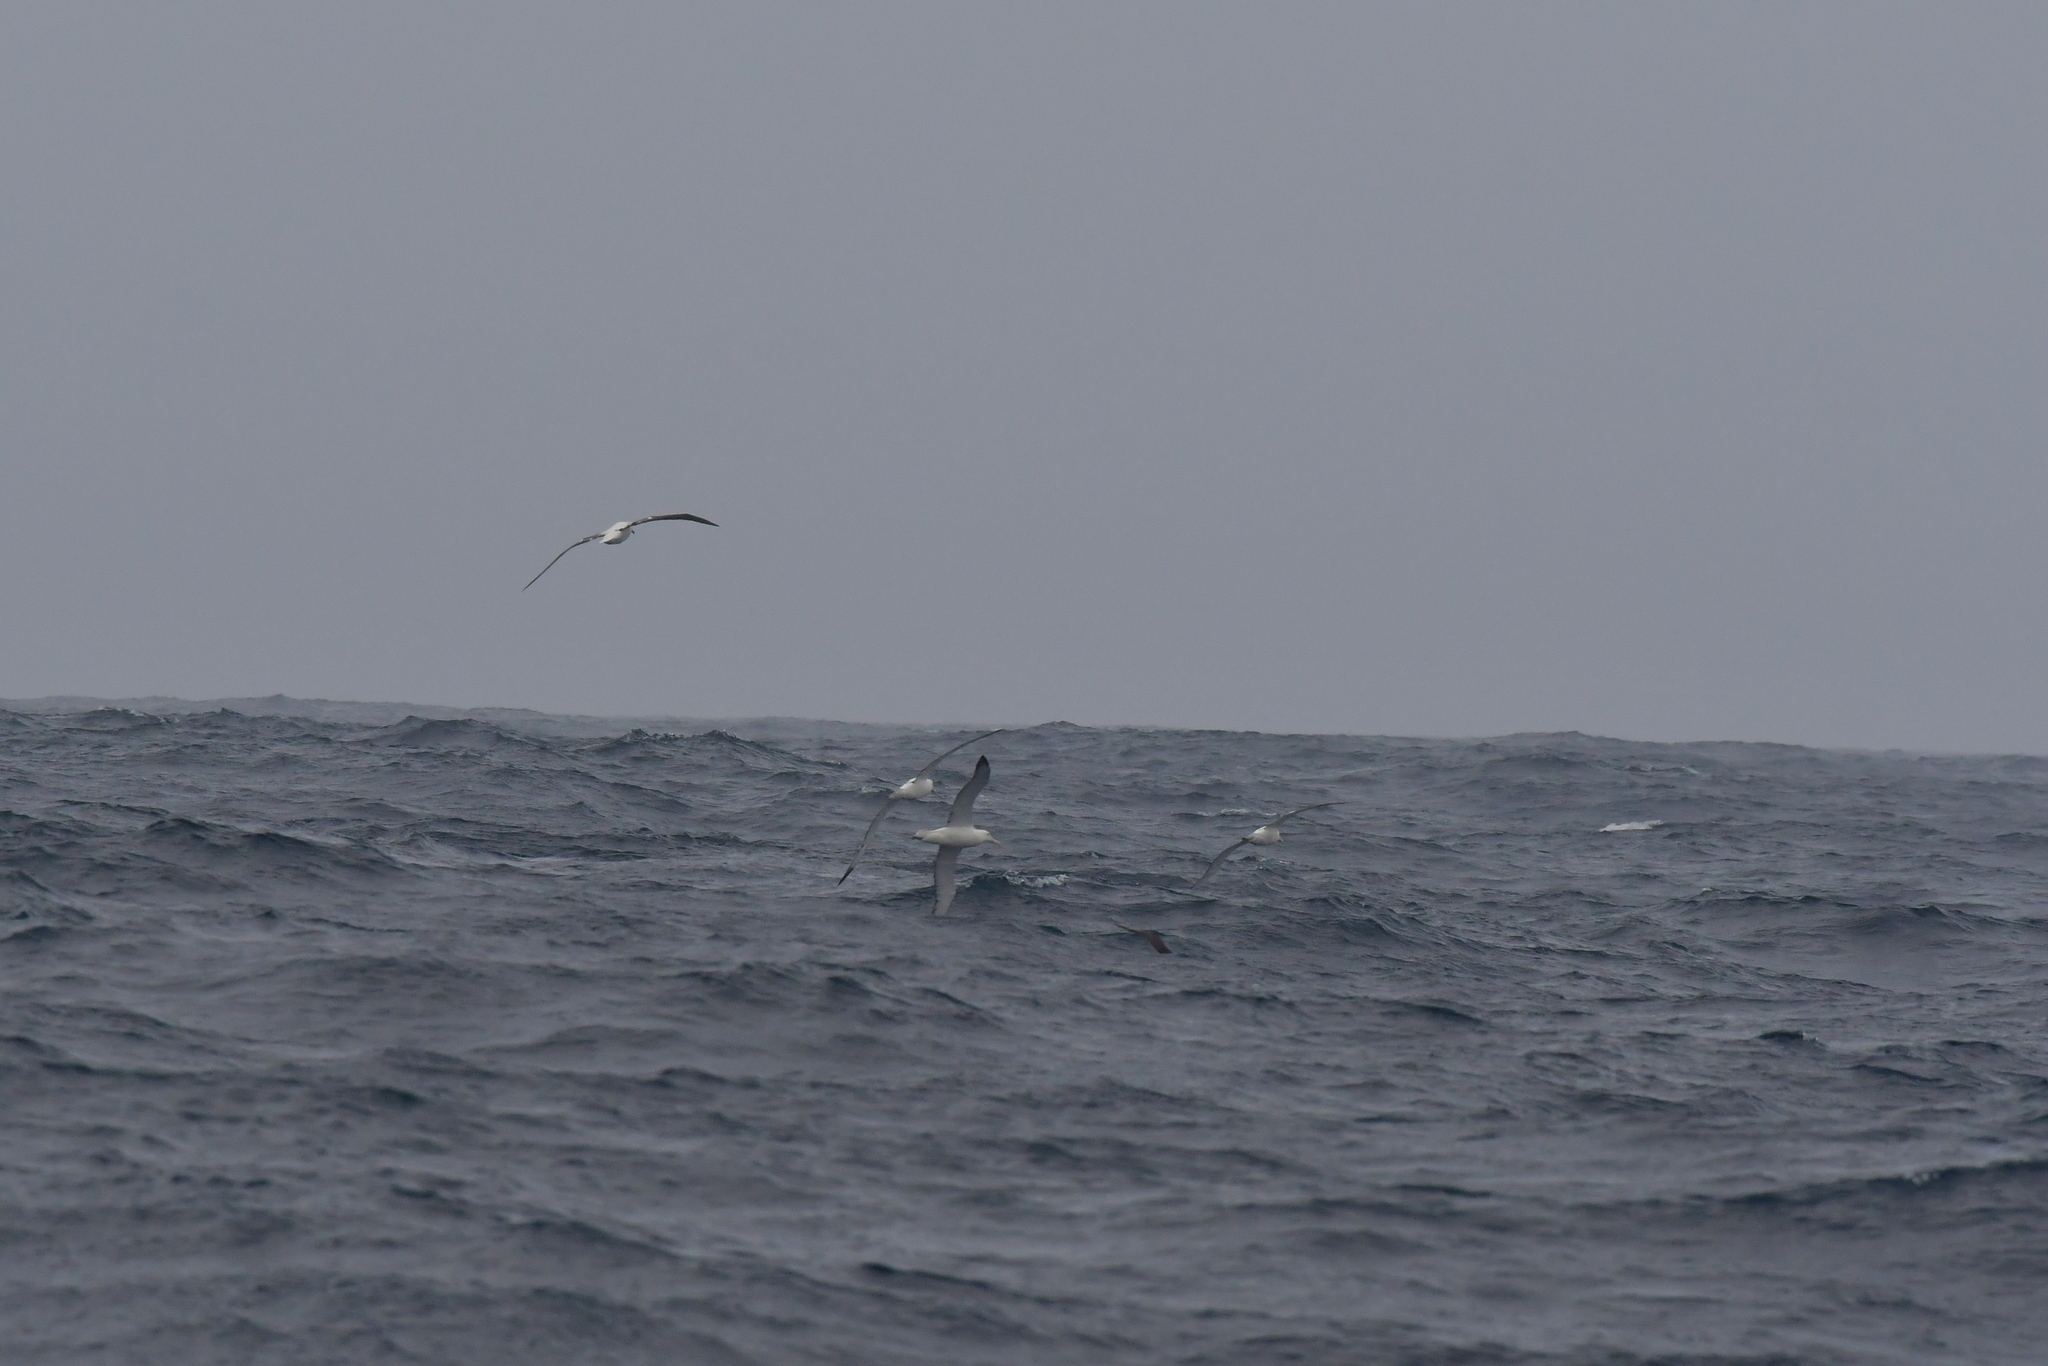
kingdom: Animalia
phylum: Chordata
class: Aves
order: Procellariiformes
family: Diomedeidae
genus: Diomedea
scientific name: Diomedea epomophora
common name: Southern royal albatross
